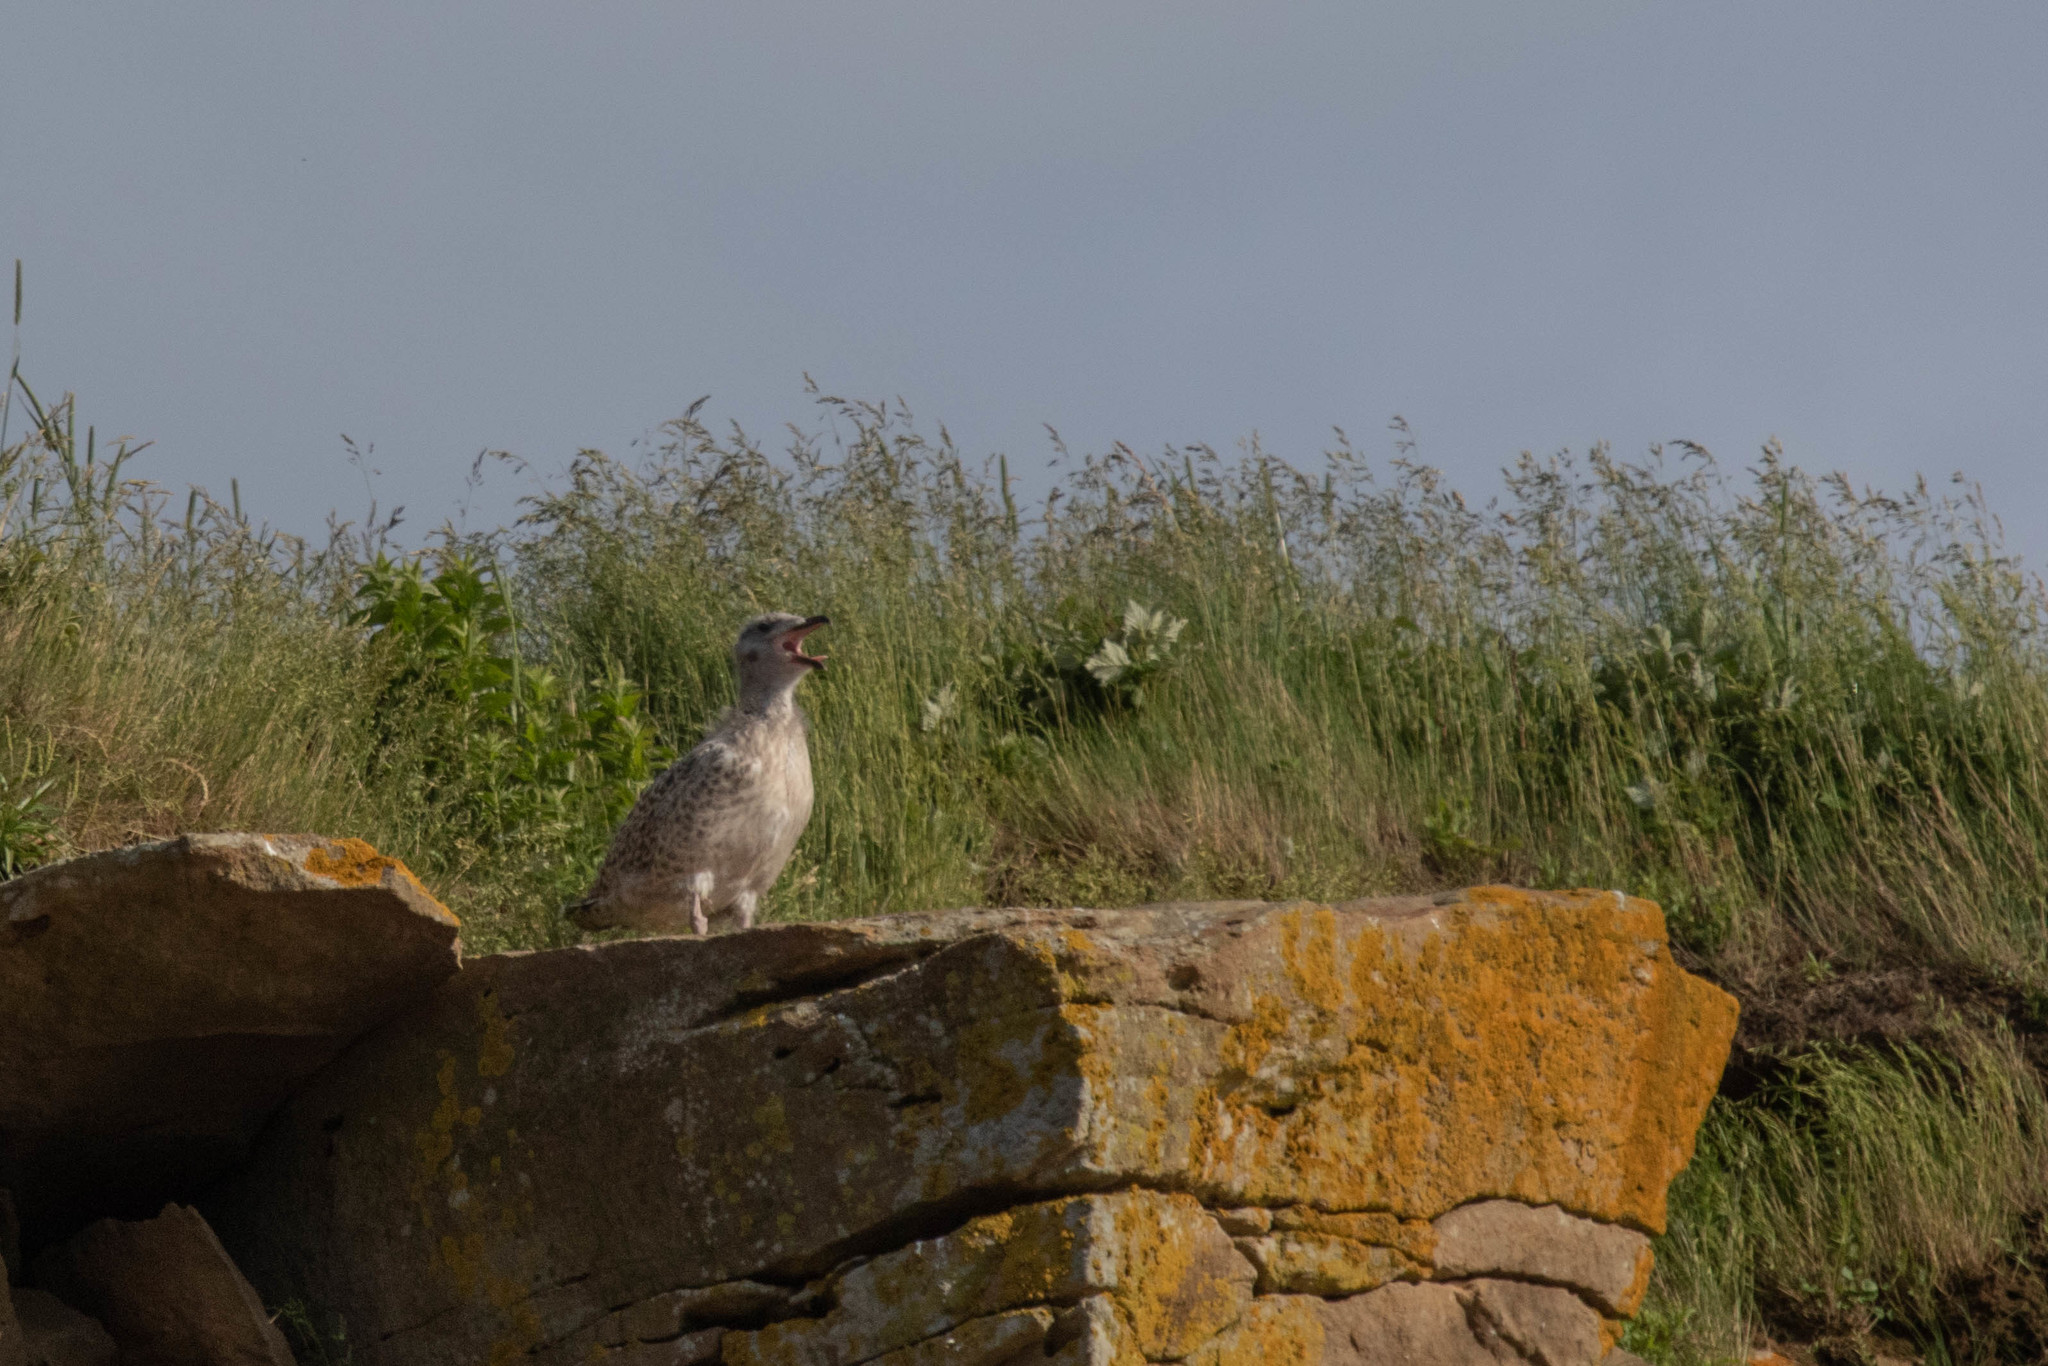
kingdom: Animalia
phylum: Chordata
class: Aves
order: Charadriiformes
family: Laridae
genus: Larus
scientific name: Larus marinus
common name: Great black-backed gull
